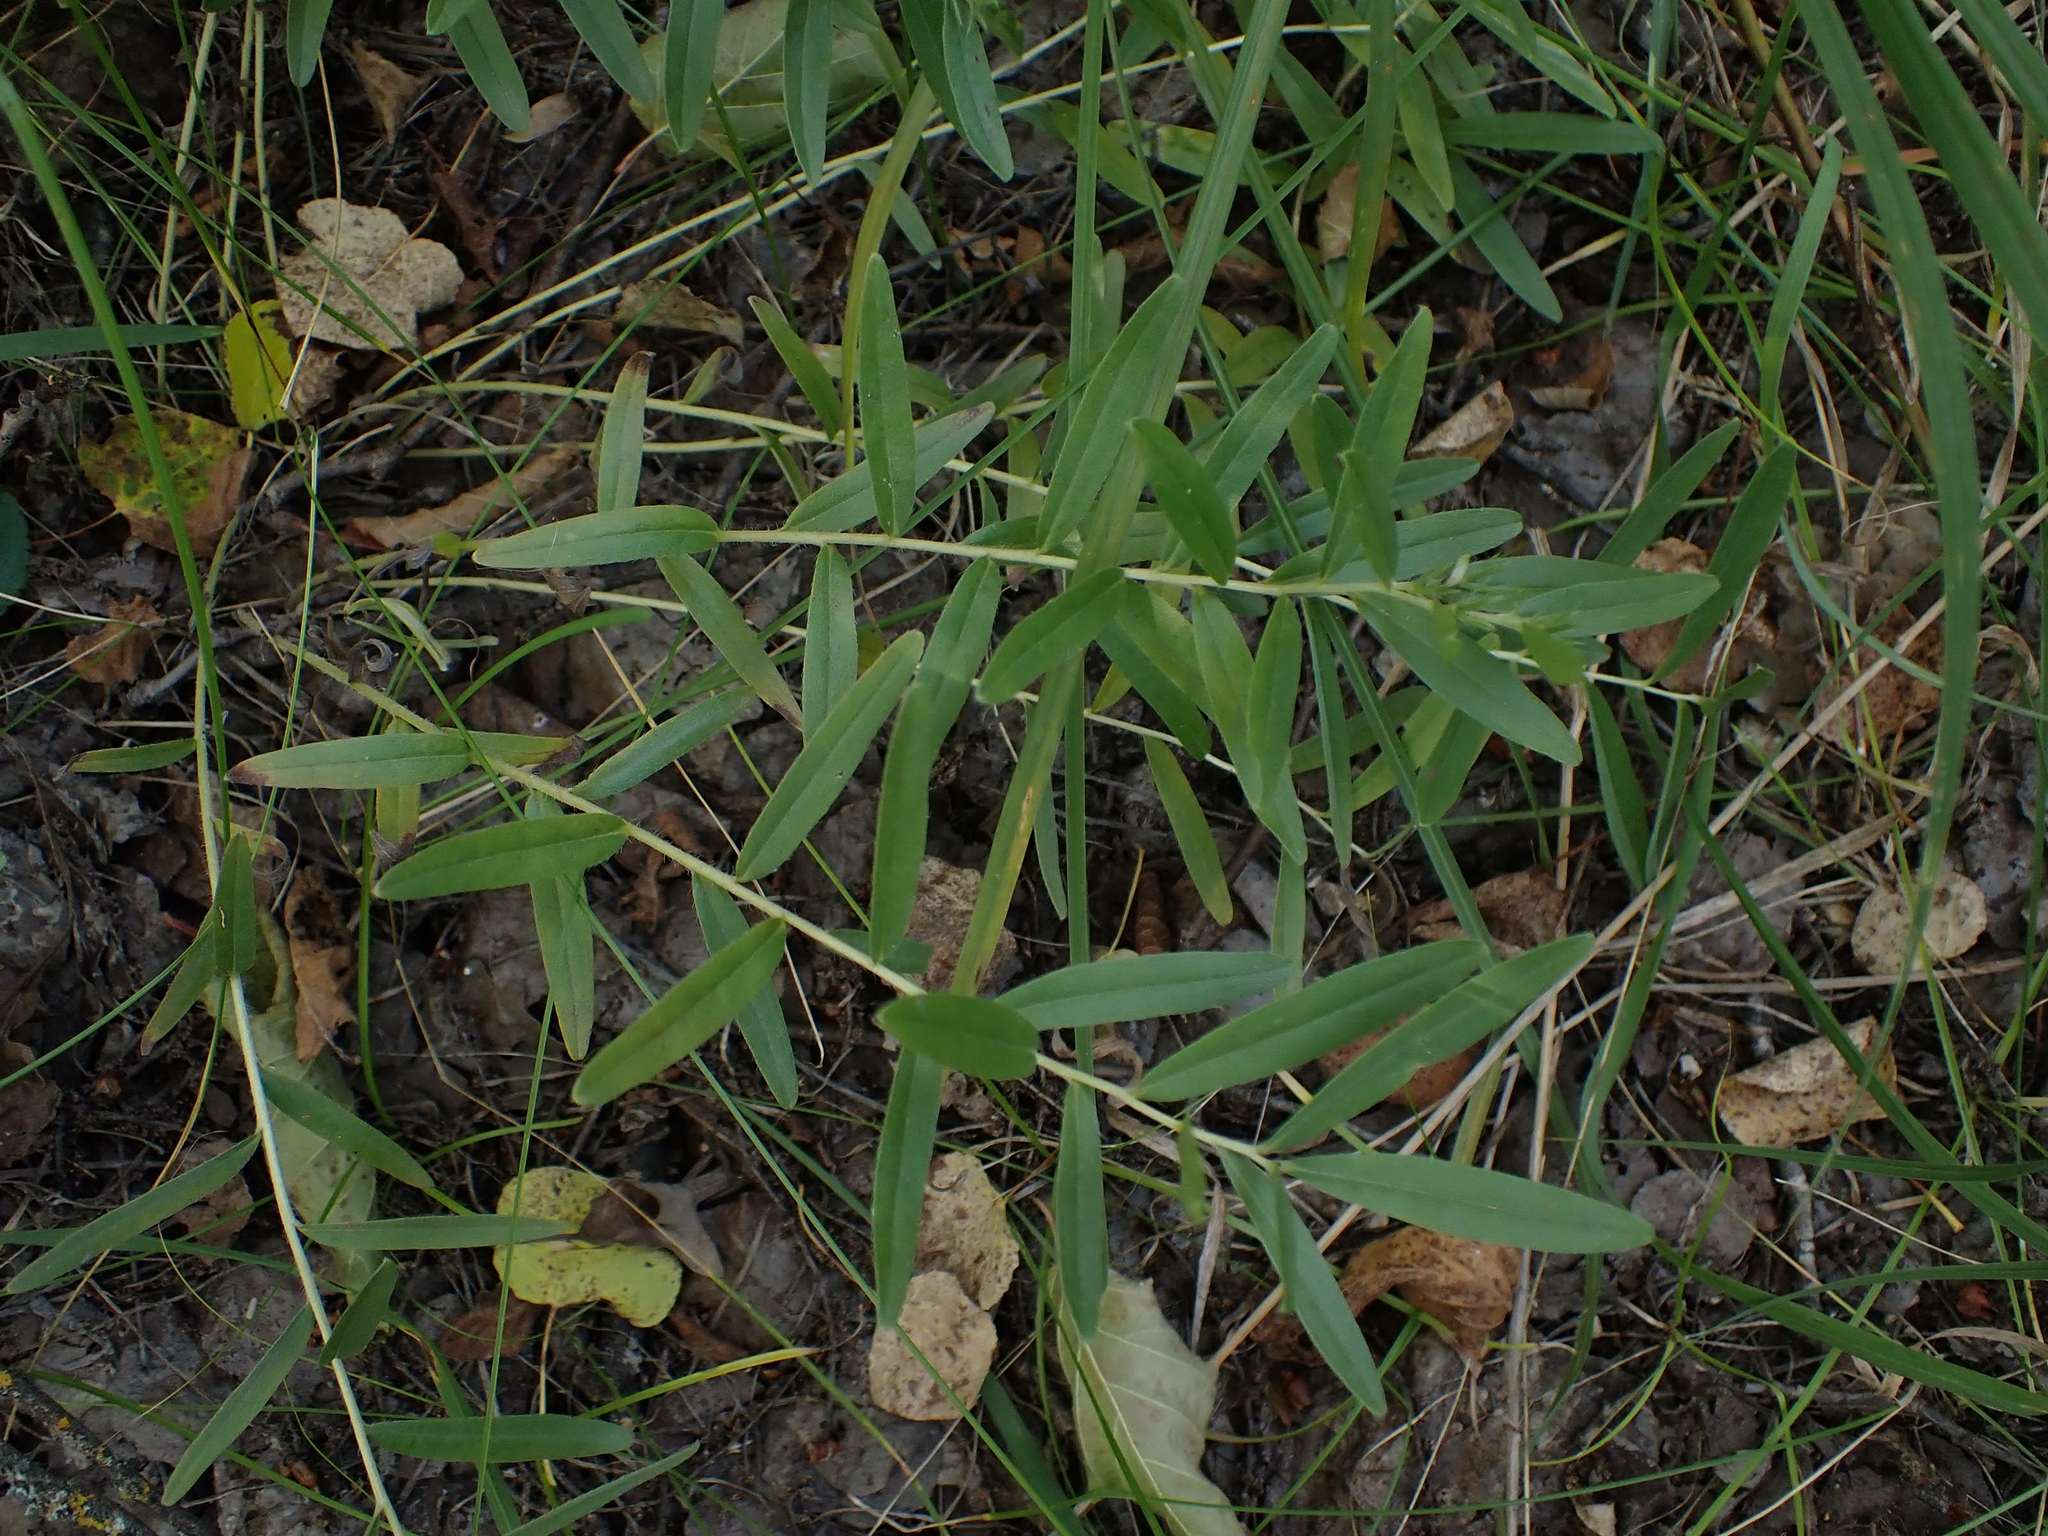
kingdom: Plantae
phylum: Tracheophyta
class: Magnoliopsida
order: Boraginales
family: Boraginaceae
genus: Lithospermum
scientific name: Lithospermum canescens
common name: Hoary puccoon
